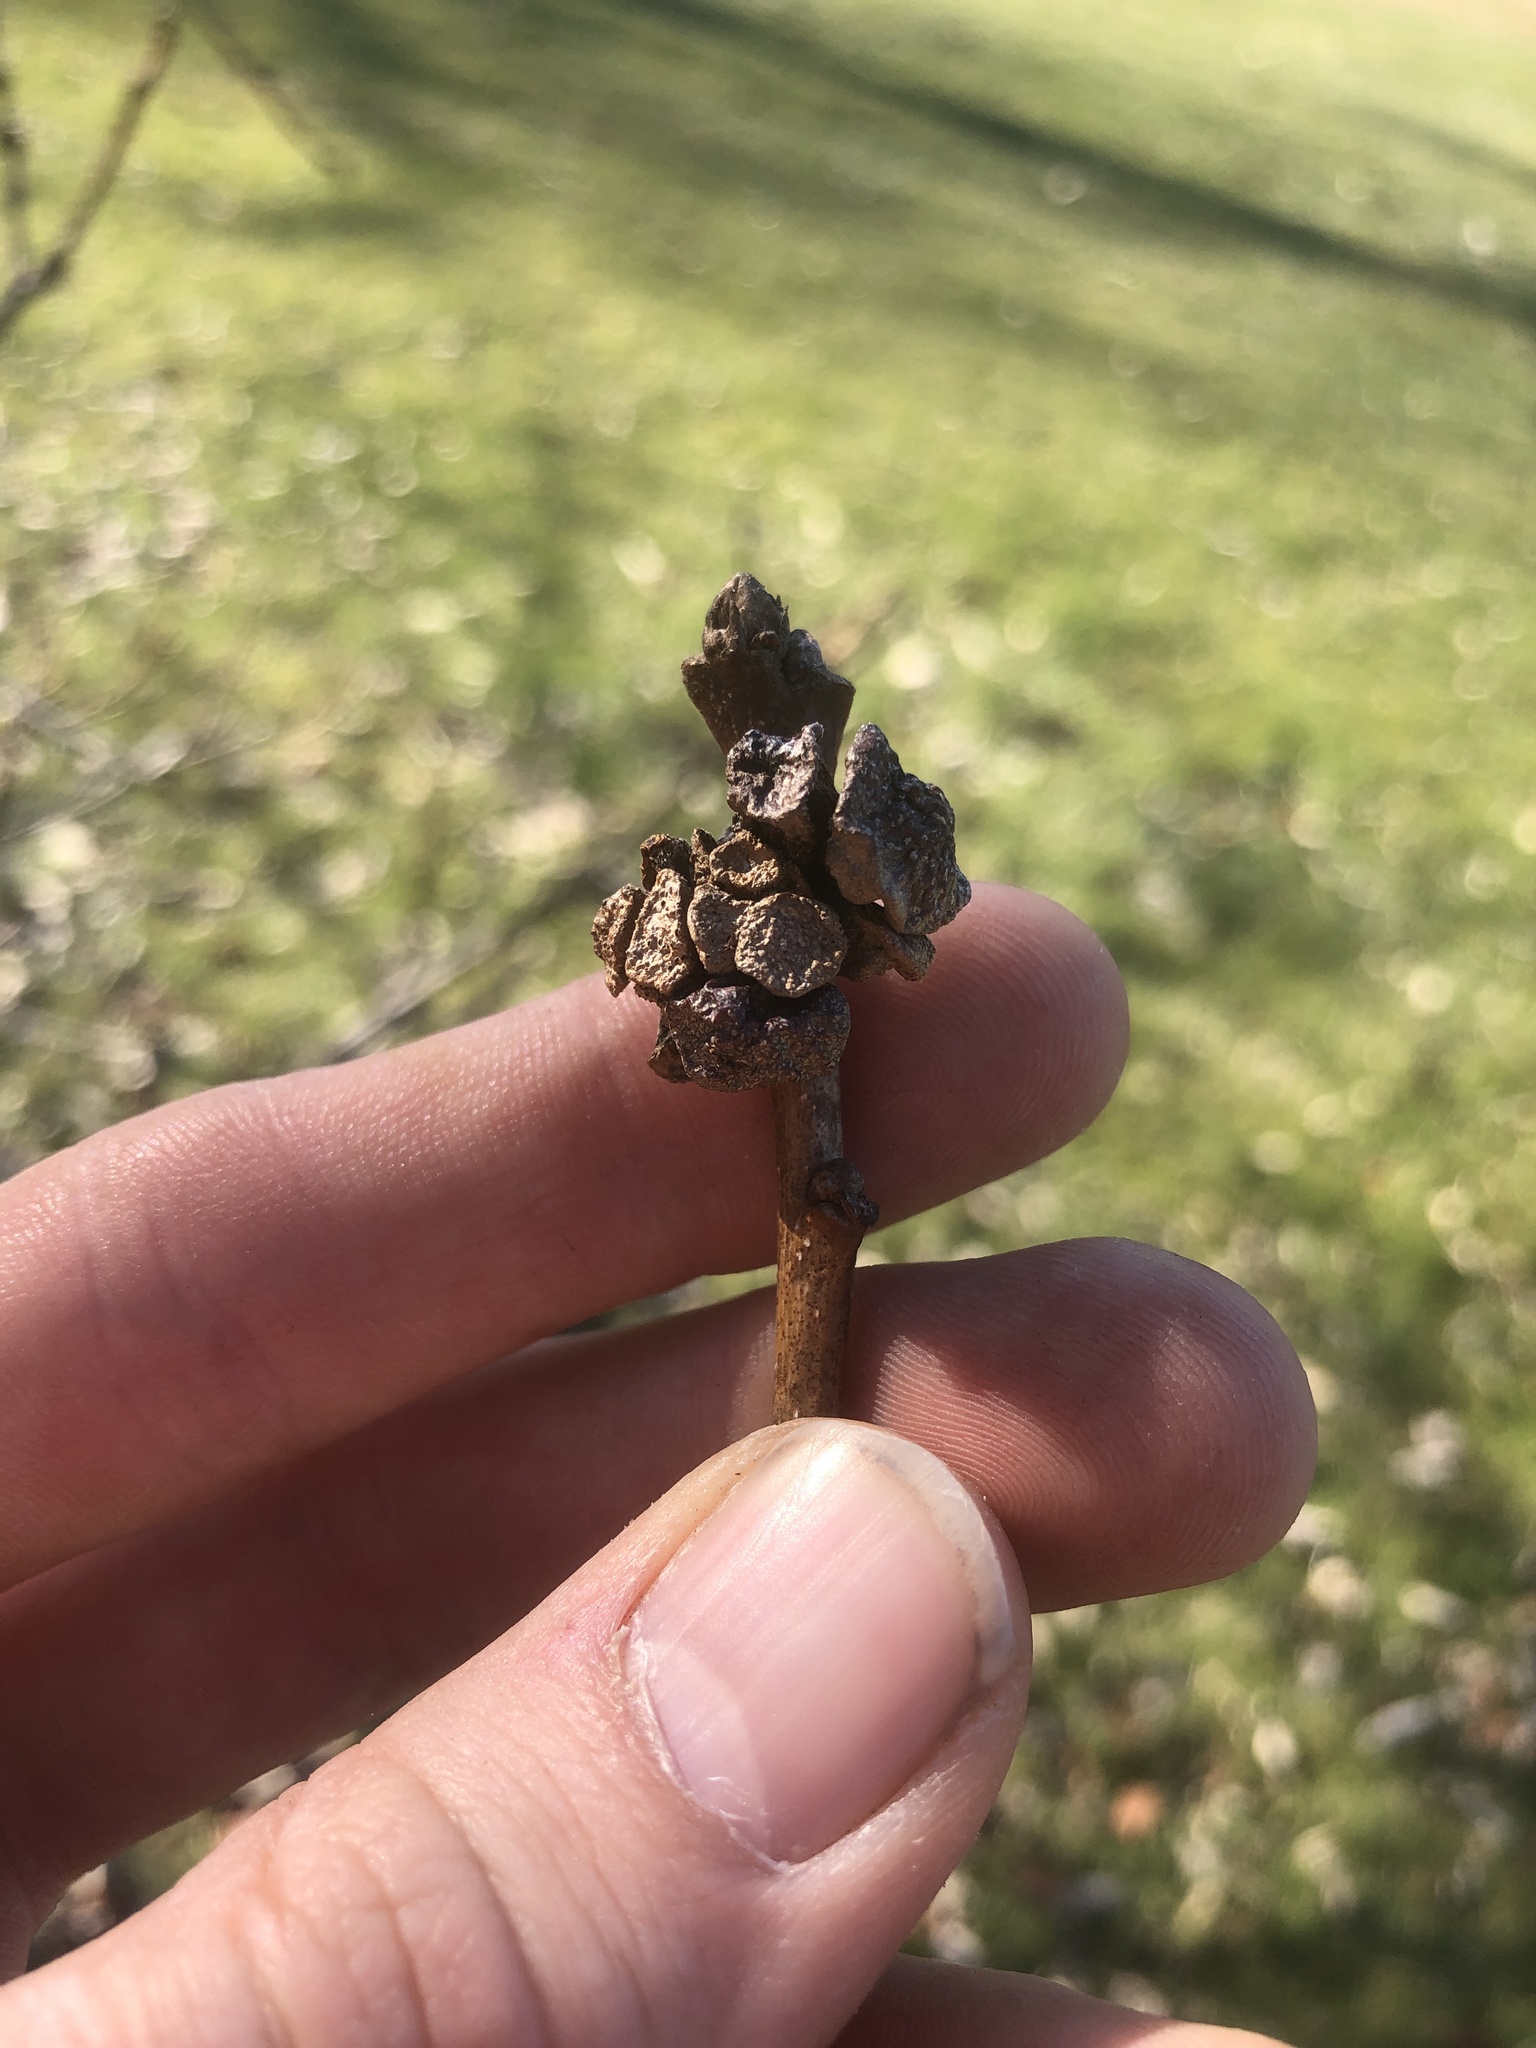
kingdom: Animalia
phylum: Arthropoda
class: Insecta
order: Hymenoptera
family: Cynipidae
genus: Andricus
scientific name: Andricus
